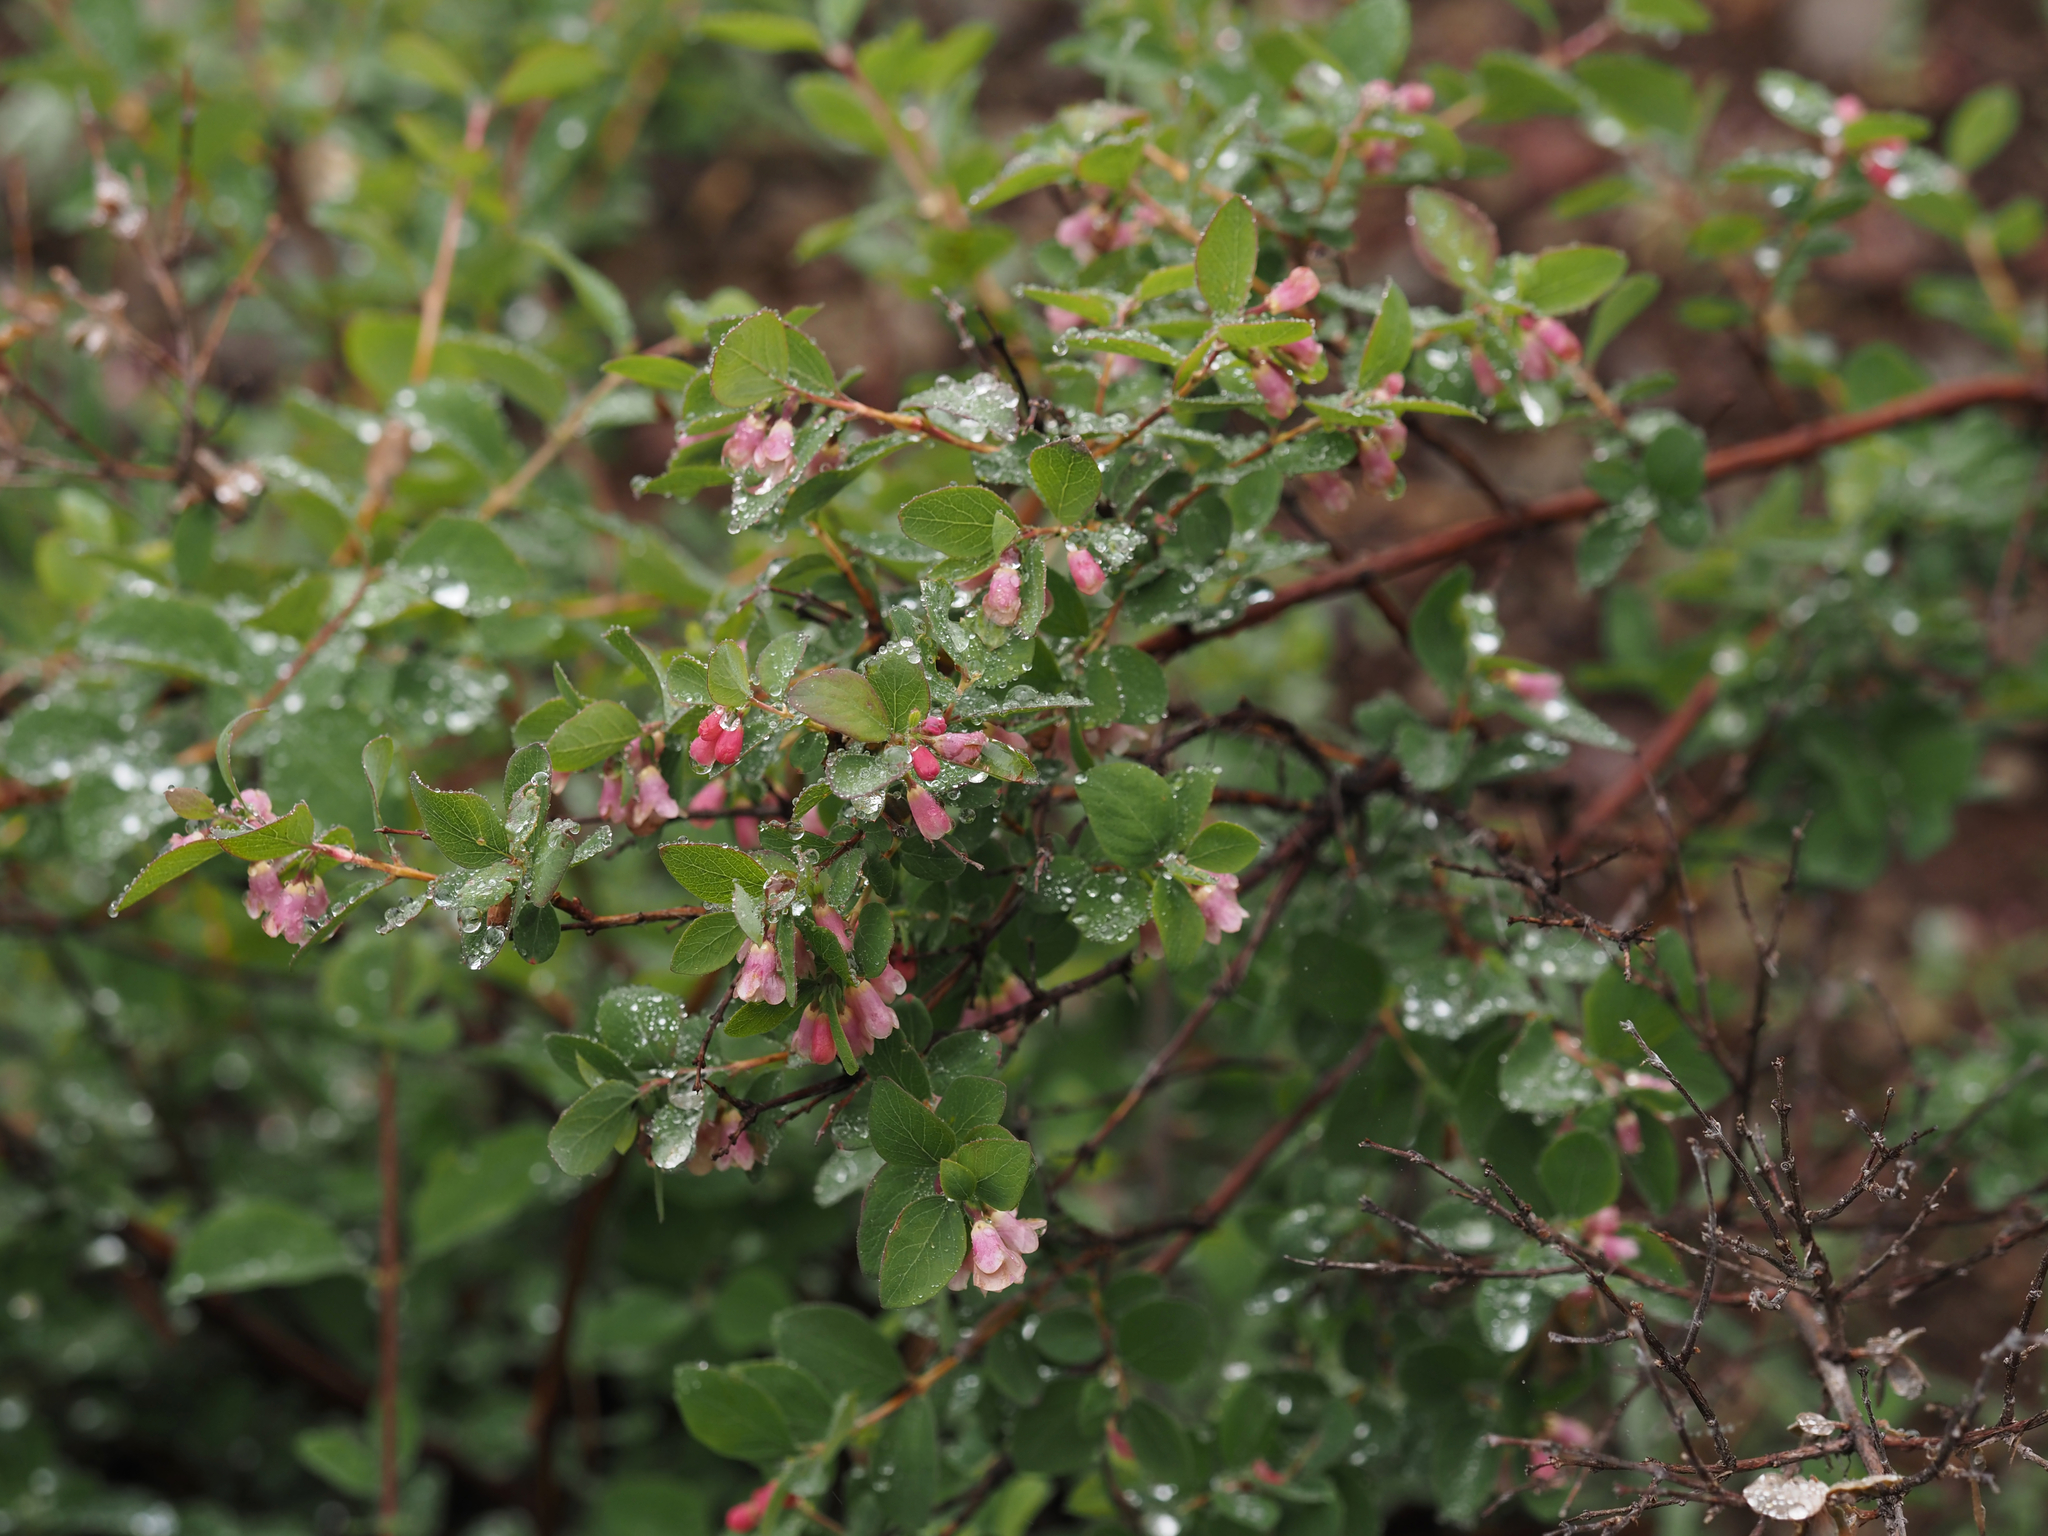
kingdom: Plantae
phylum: Tracheophyta
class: Magnoliopsida
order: Dipsacales
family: Caprifoliaceae
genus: Symphoricarpos
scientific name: Symphoricarpos rotundifolius
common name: Round-leaved snowberry
